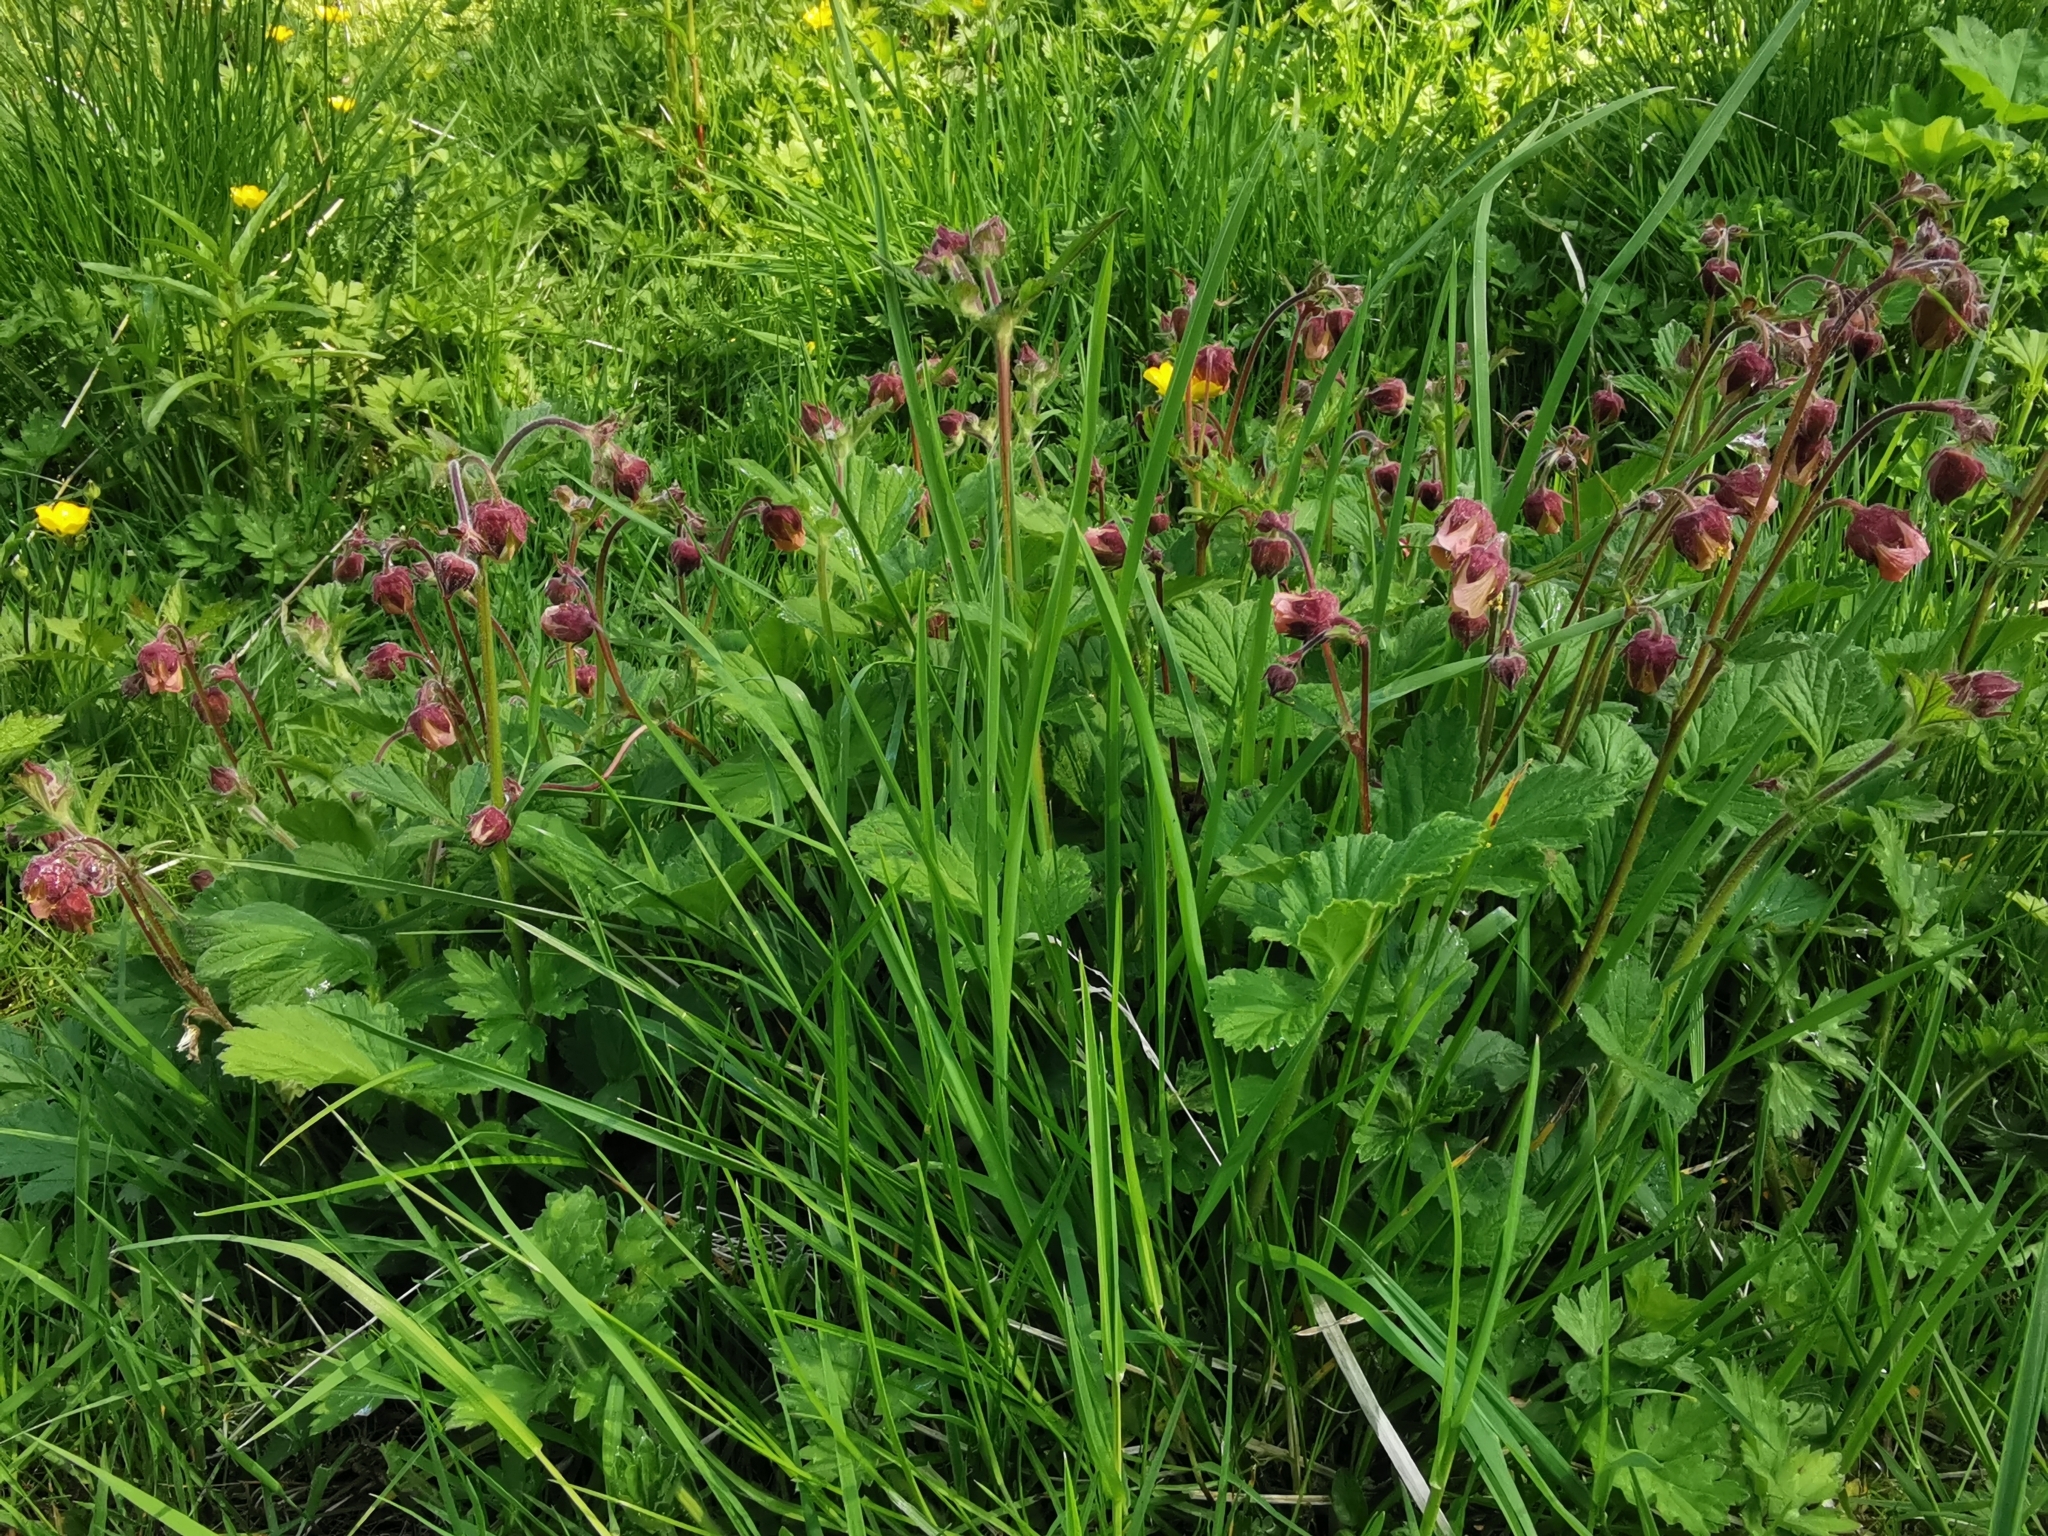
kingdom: Plantae
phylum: Tracheophyta
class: Magnoliopsida
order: Rosales
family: Rosaceae
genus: Geum
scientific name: Geum rivale
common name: Water avens
